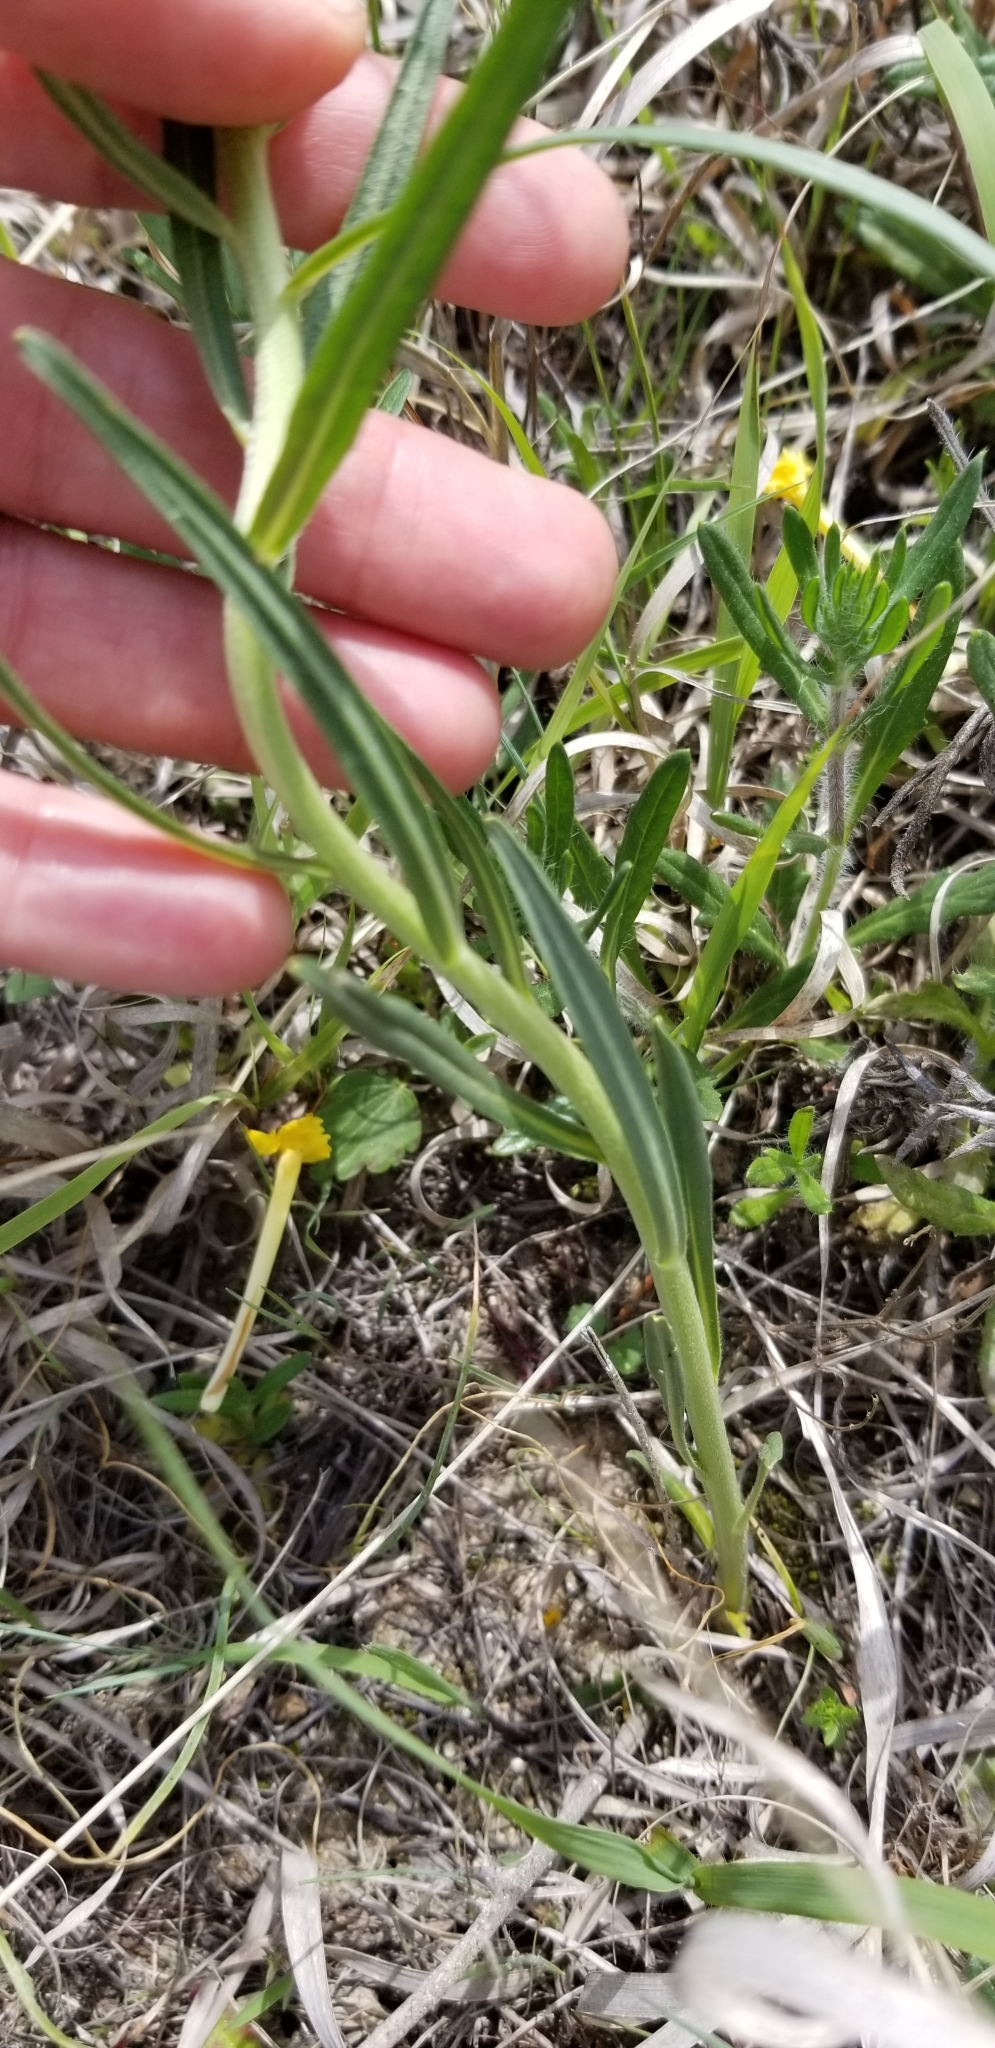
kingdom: Plantae
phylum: Tracheophyta
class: Magnoliopsida
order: Boraginales
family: Boraginaceae
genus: Lithospermum
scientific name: Lithospermum incisum
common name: Fringed gromwell
